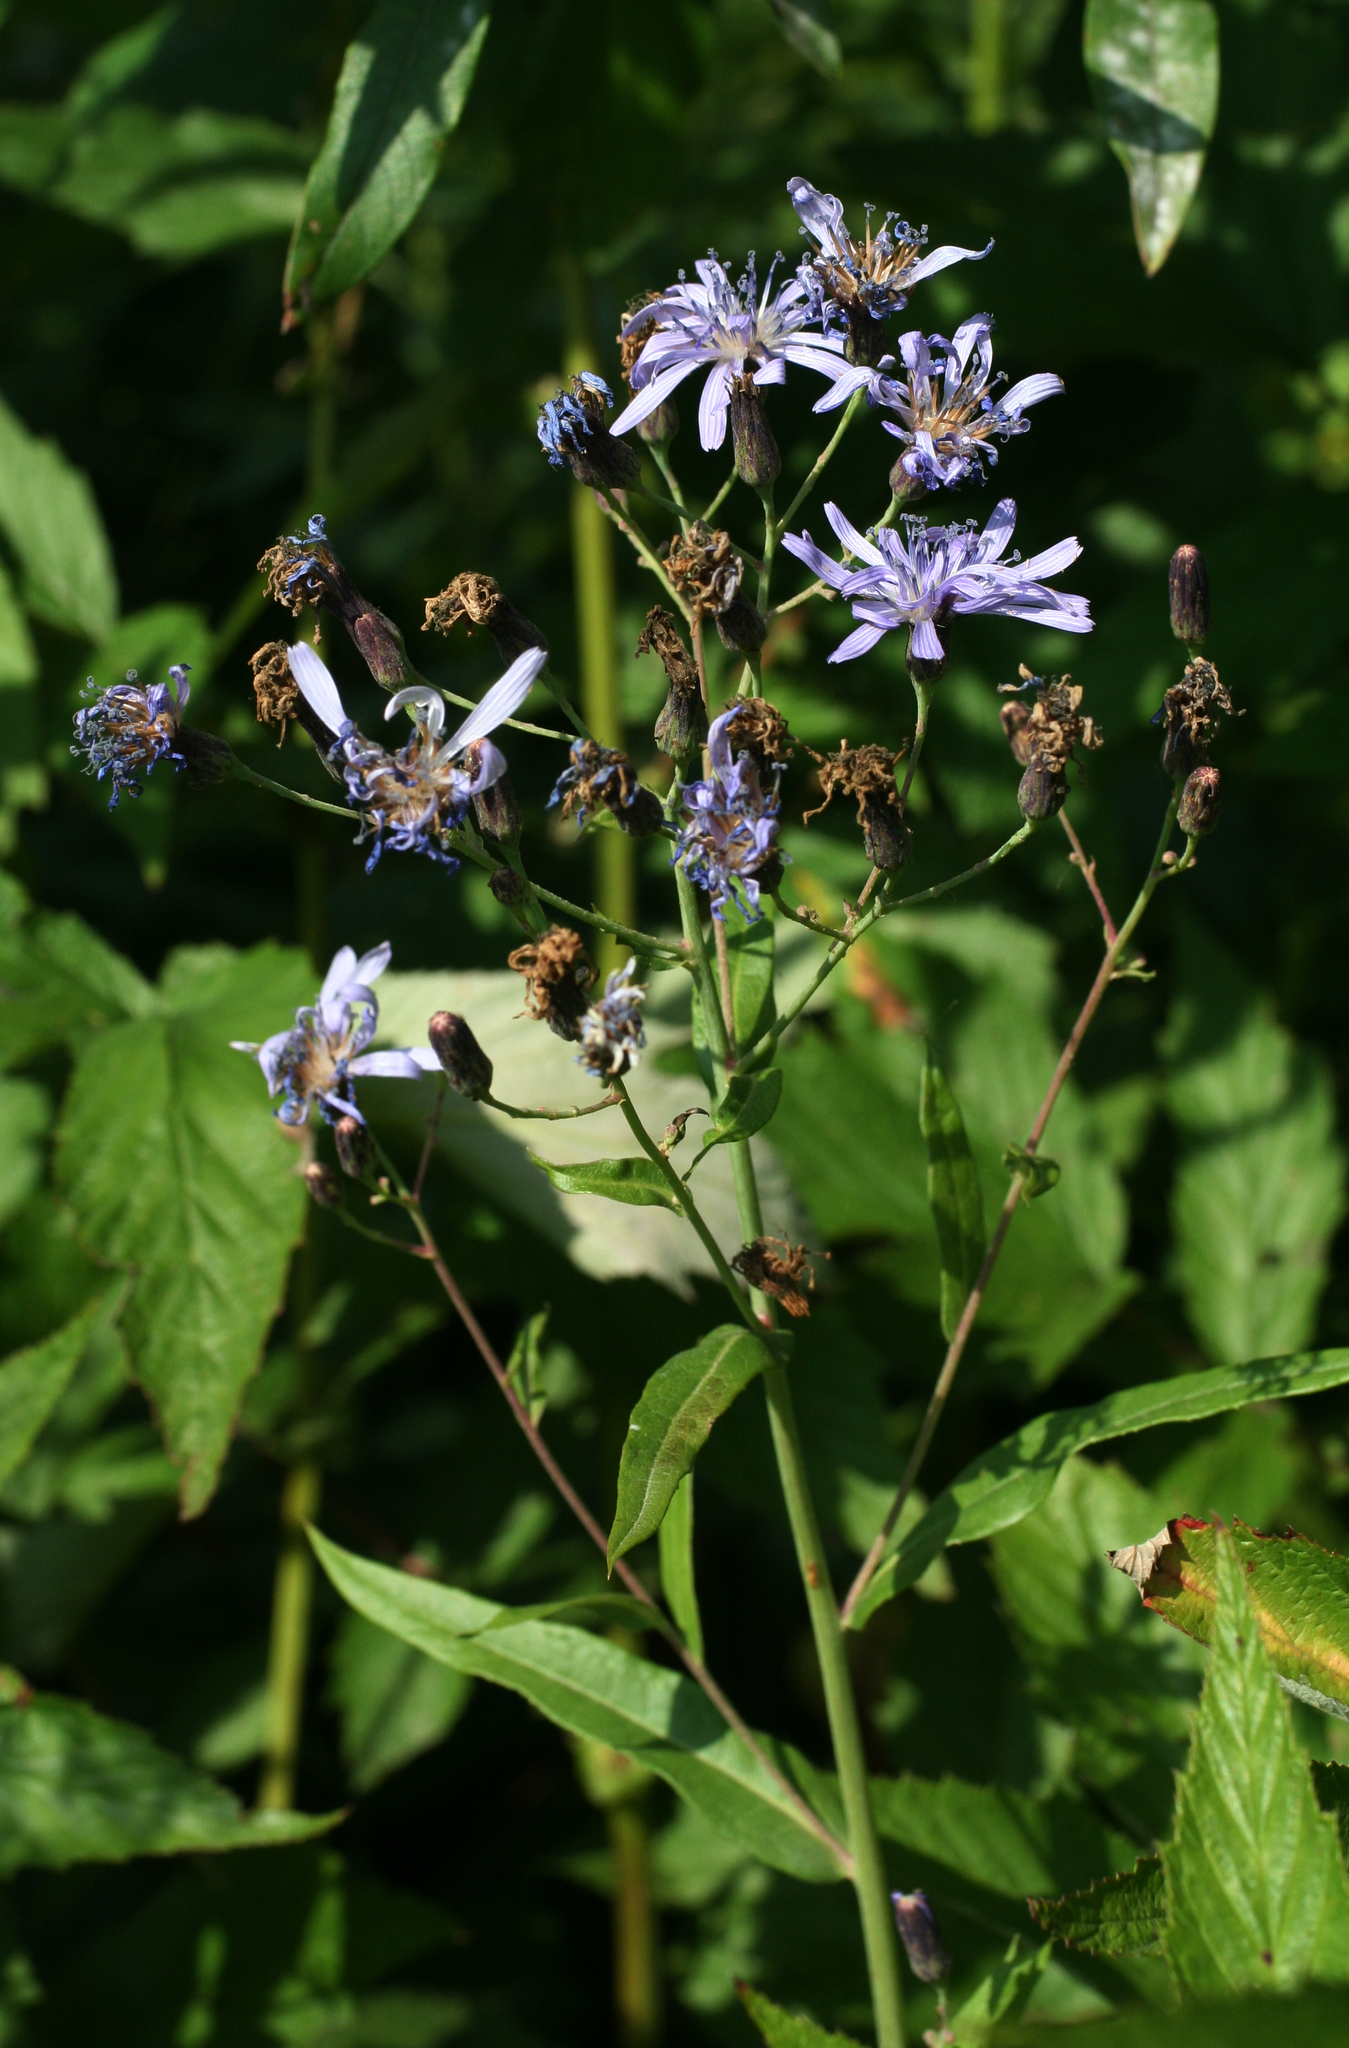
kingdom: Plantae
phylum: Tracheophyta
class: Magnoliopsida
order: Asterales
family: Asteraceae
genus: Lactuca
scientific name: Lactuca sibirica
